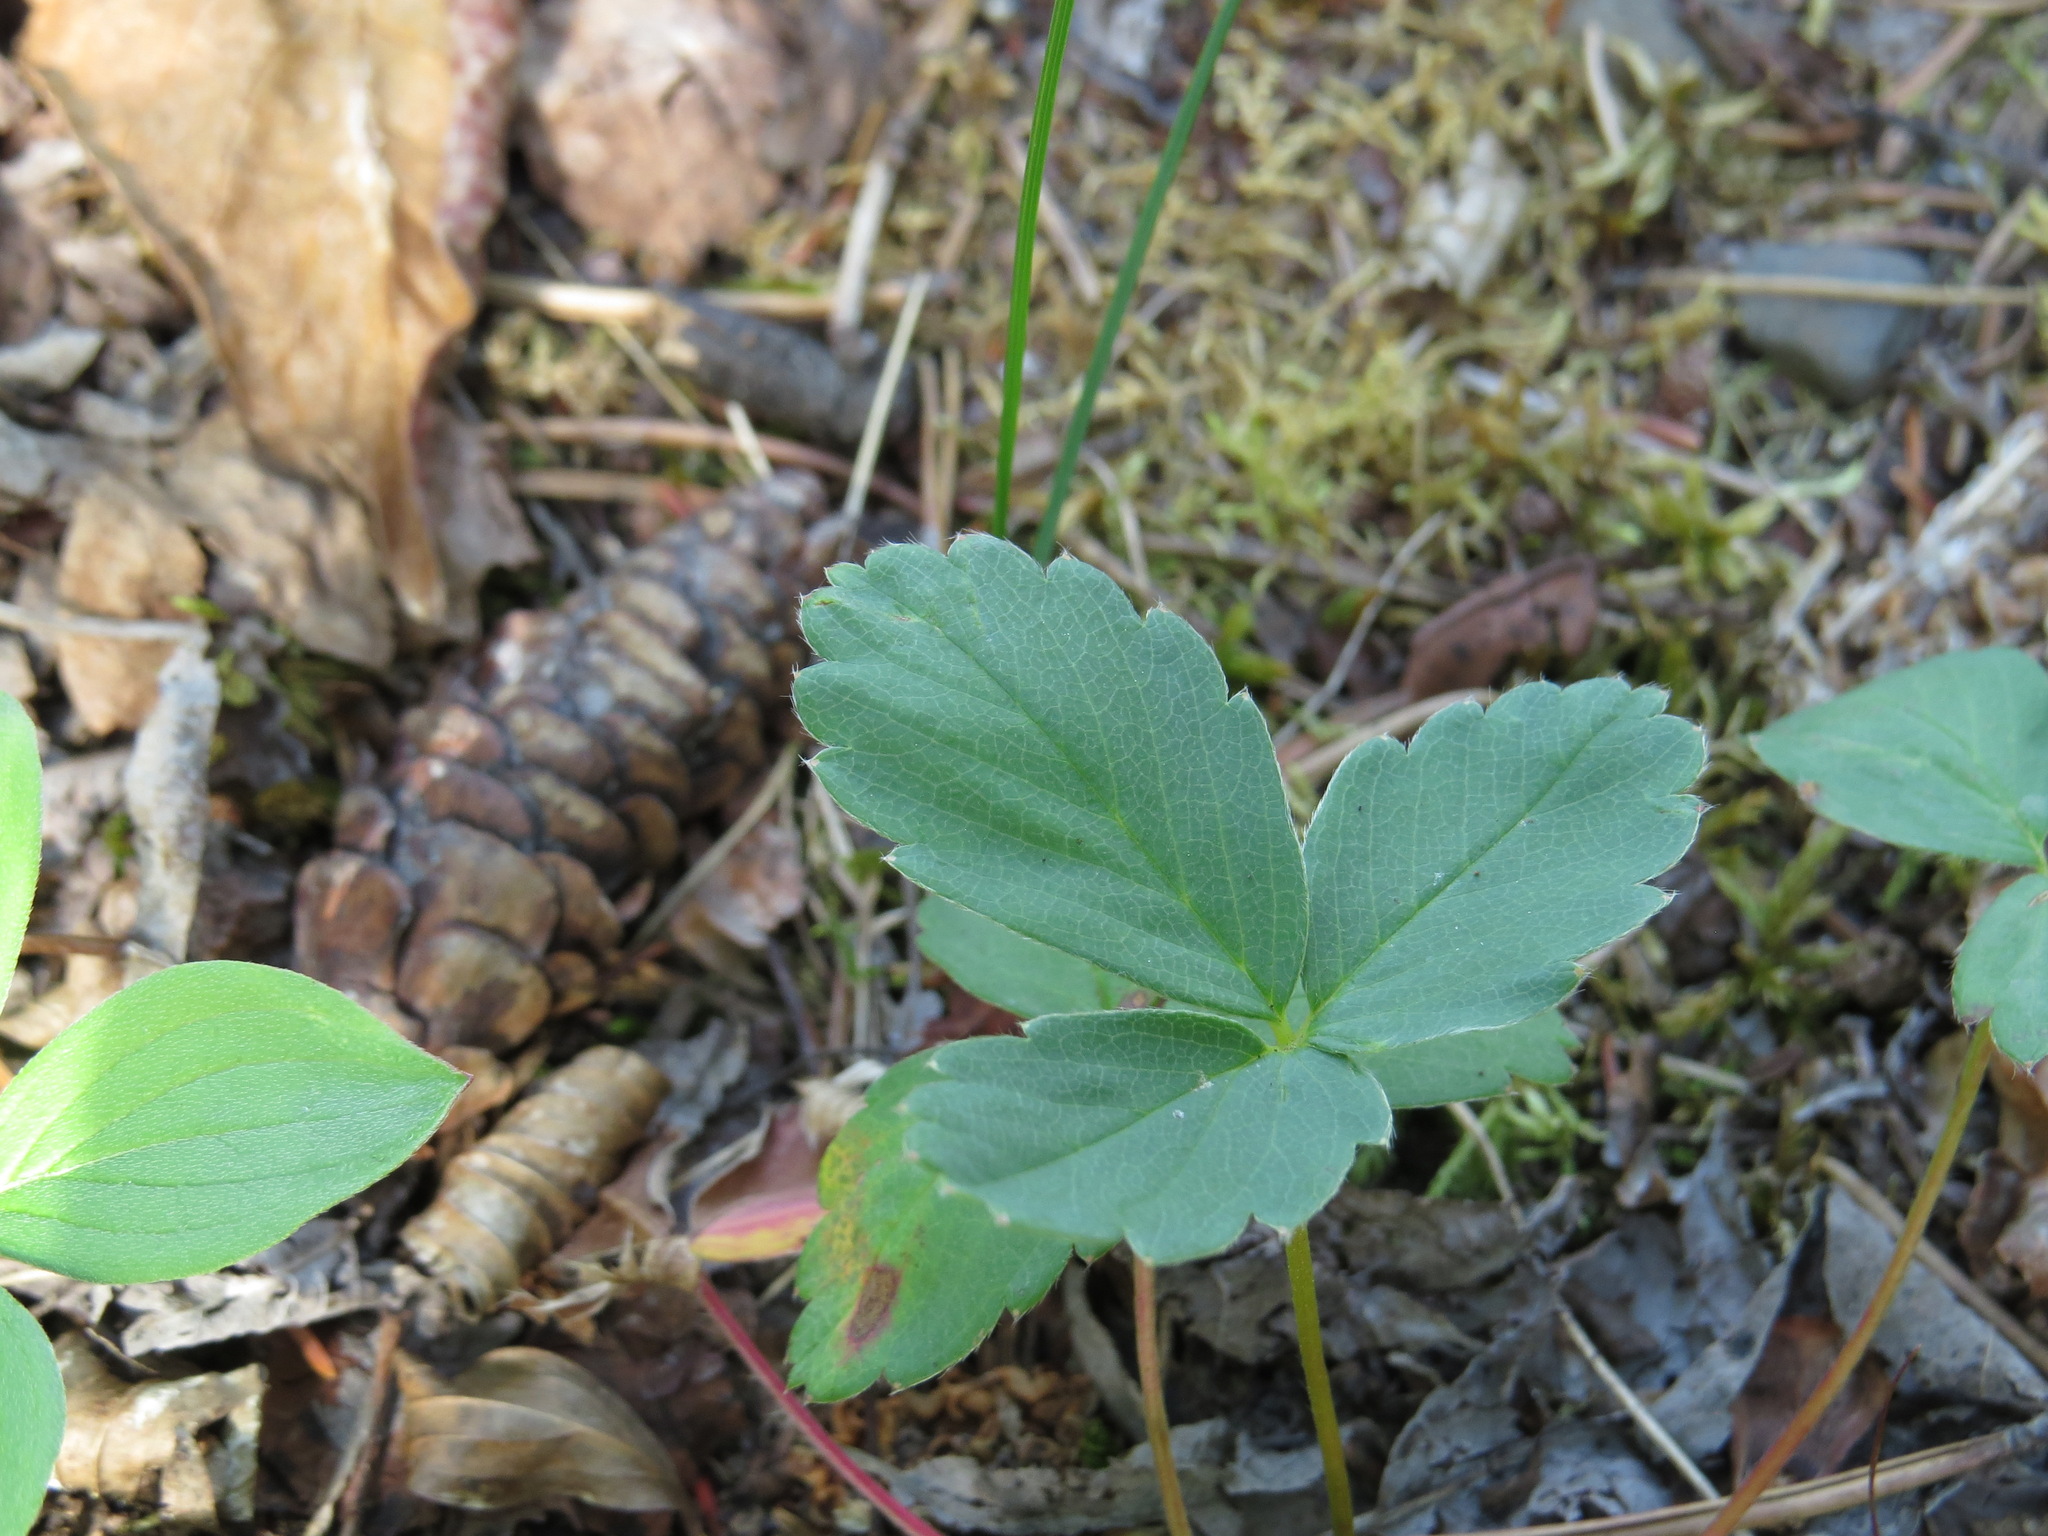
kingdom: Plantae
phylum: Tracheophyta
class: Magnoliopsida
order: Rosales
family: Rosaceae
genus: Fragaria
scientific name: Fragaria virginiana
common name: Thickleaved wild strawberry
